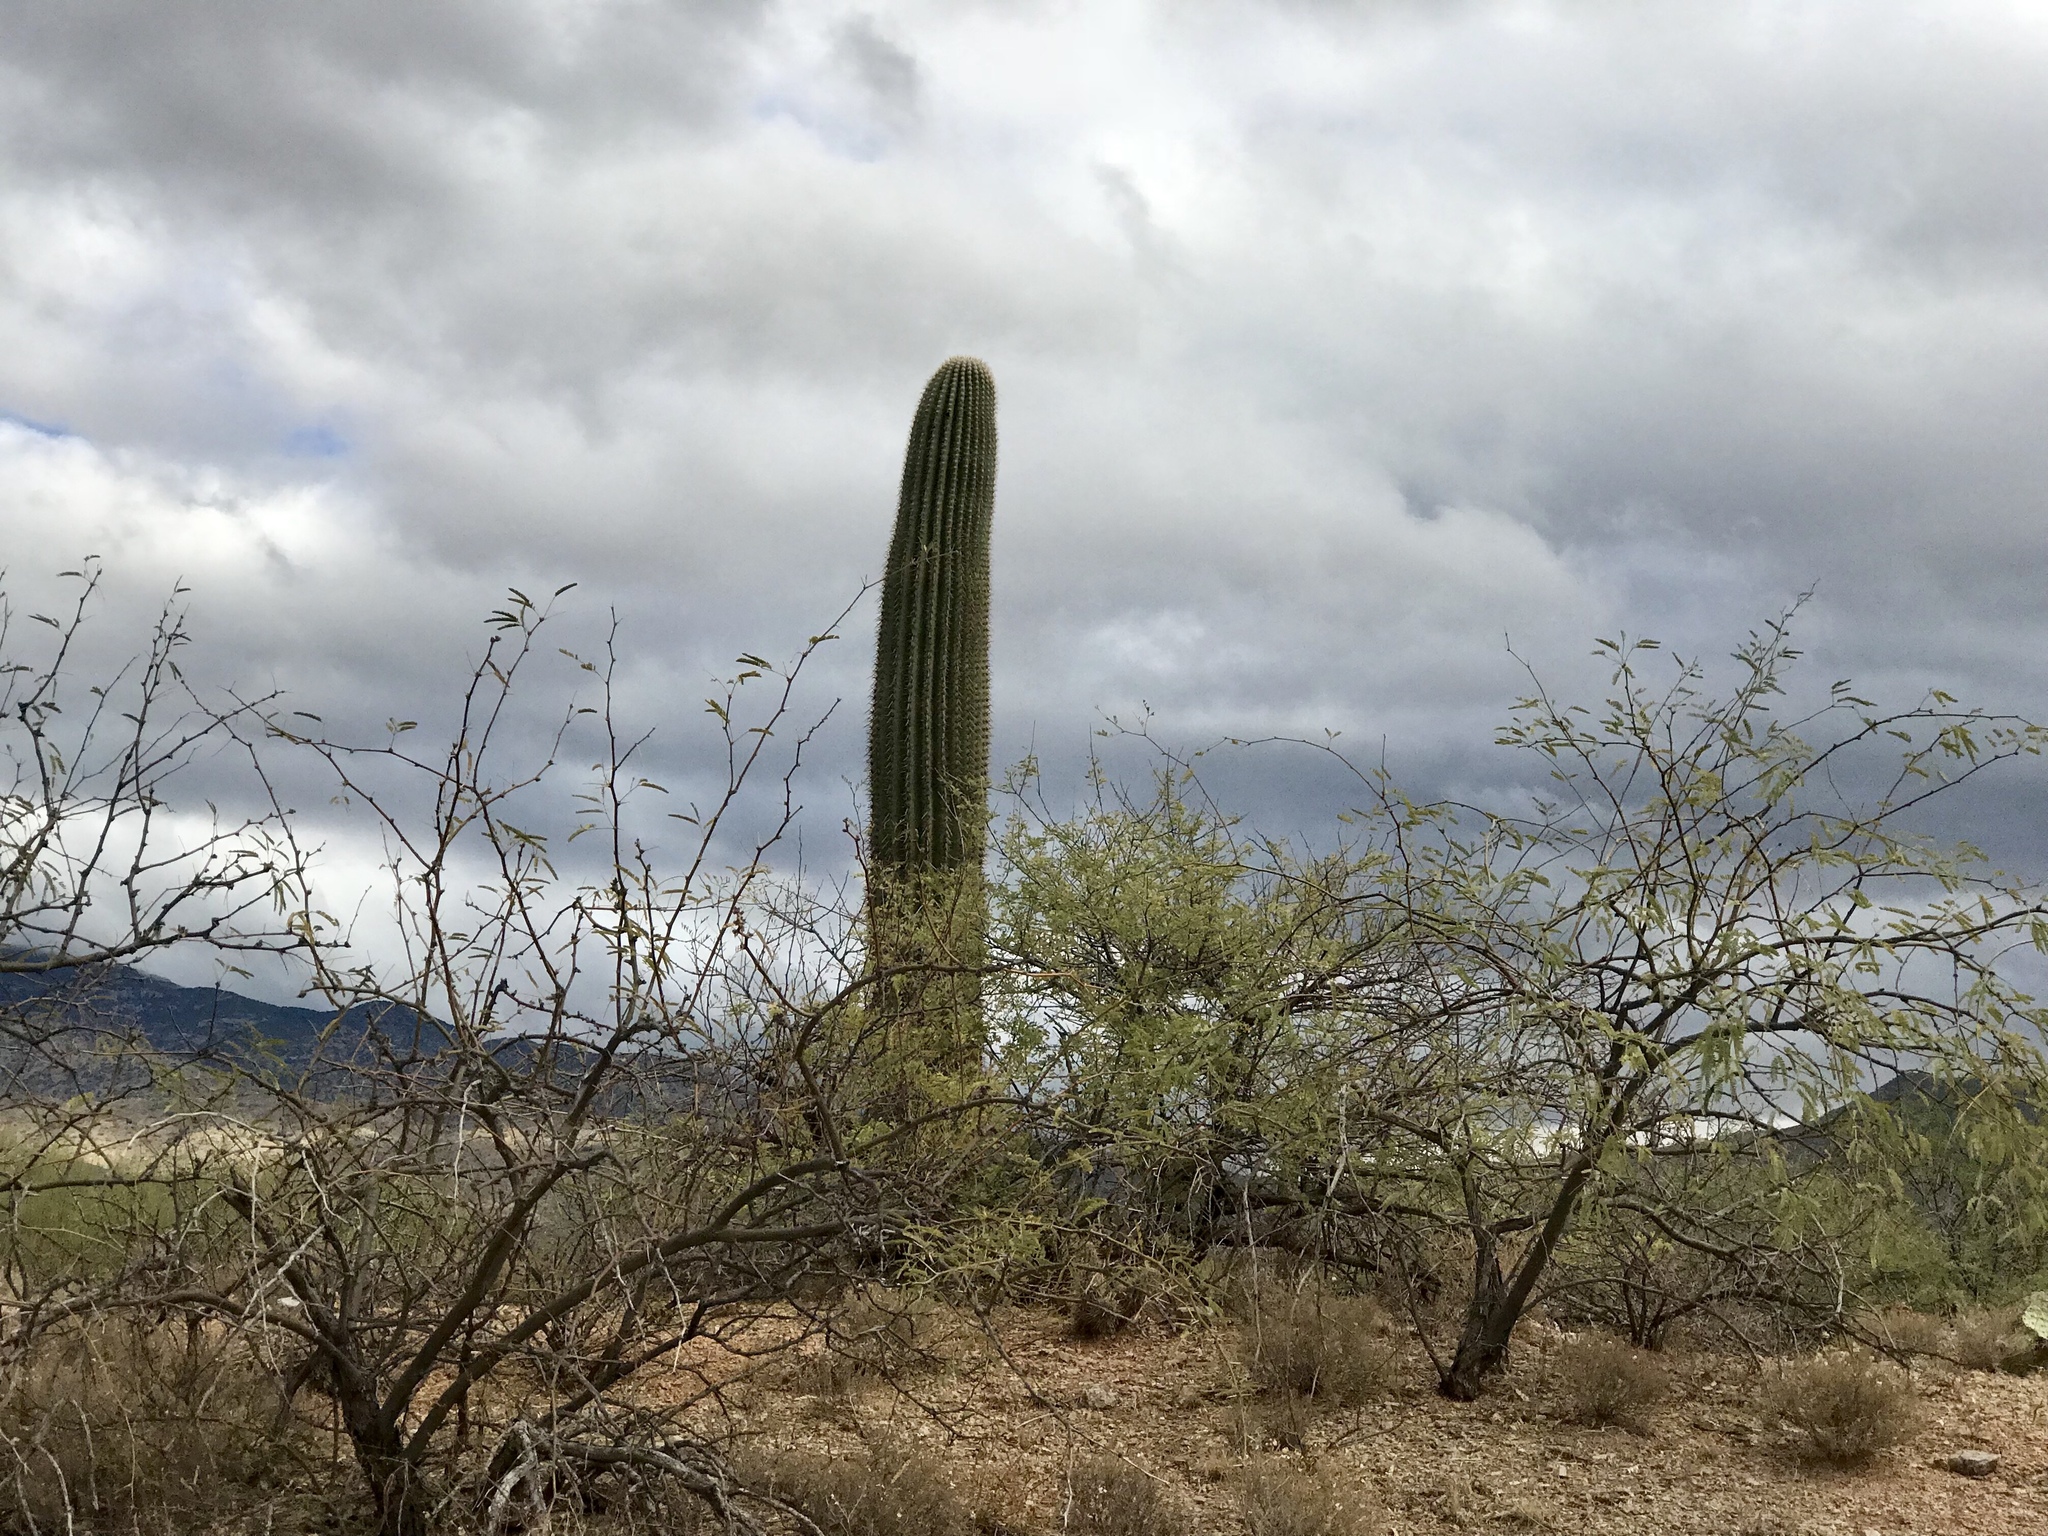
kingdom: Plantae
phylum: Tracheophyta
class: Magnoliopsida
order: Caryophyllales
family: Cactaceae
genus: Carnegiea
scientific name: Carnegiea gigantea
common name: Saguaro
